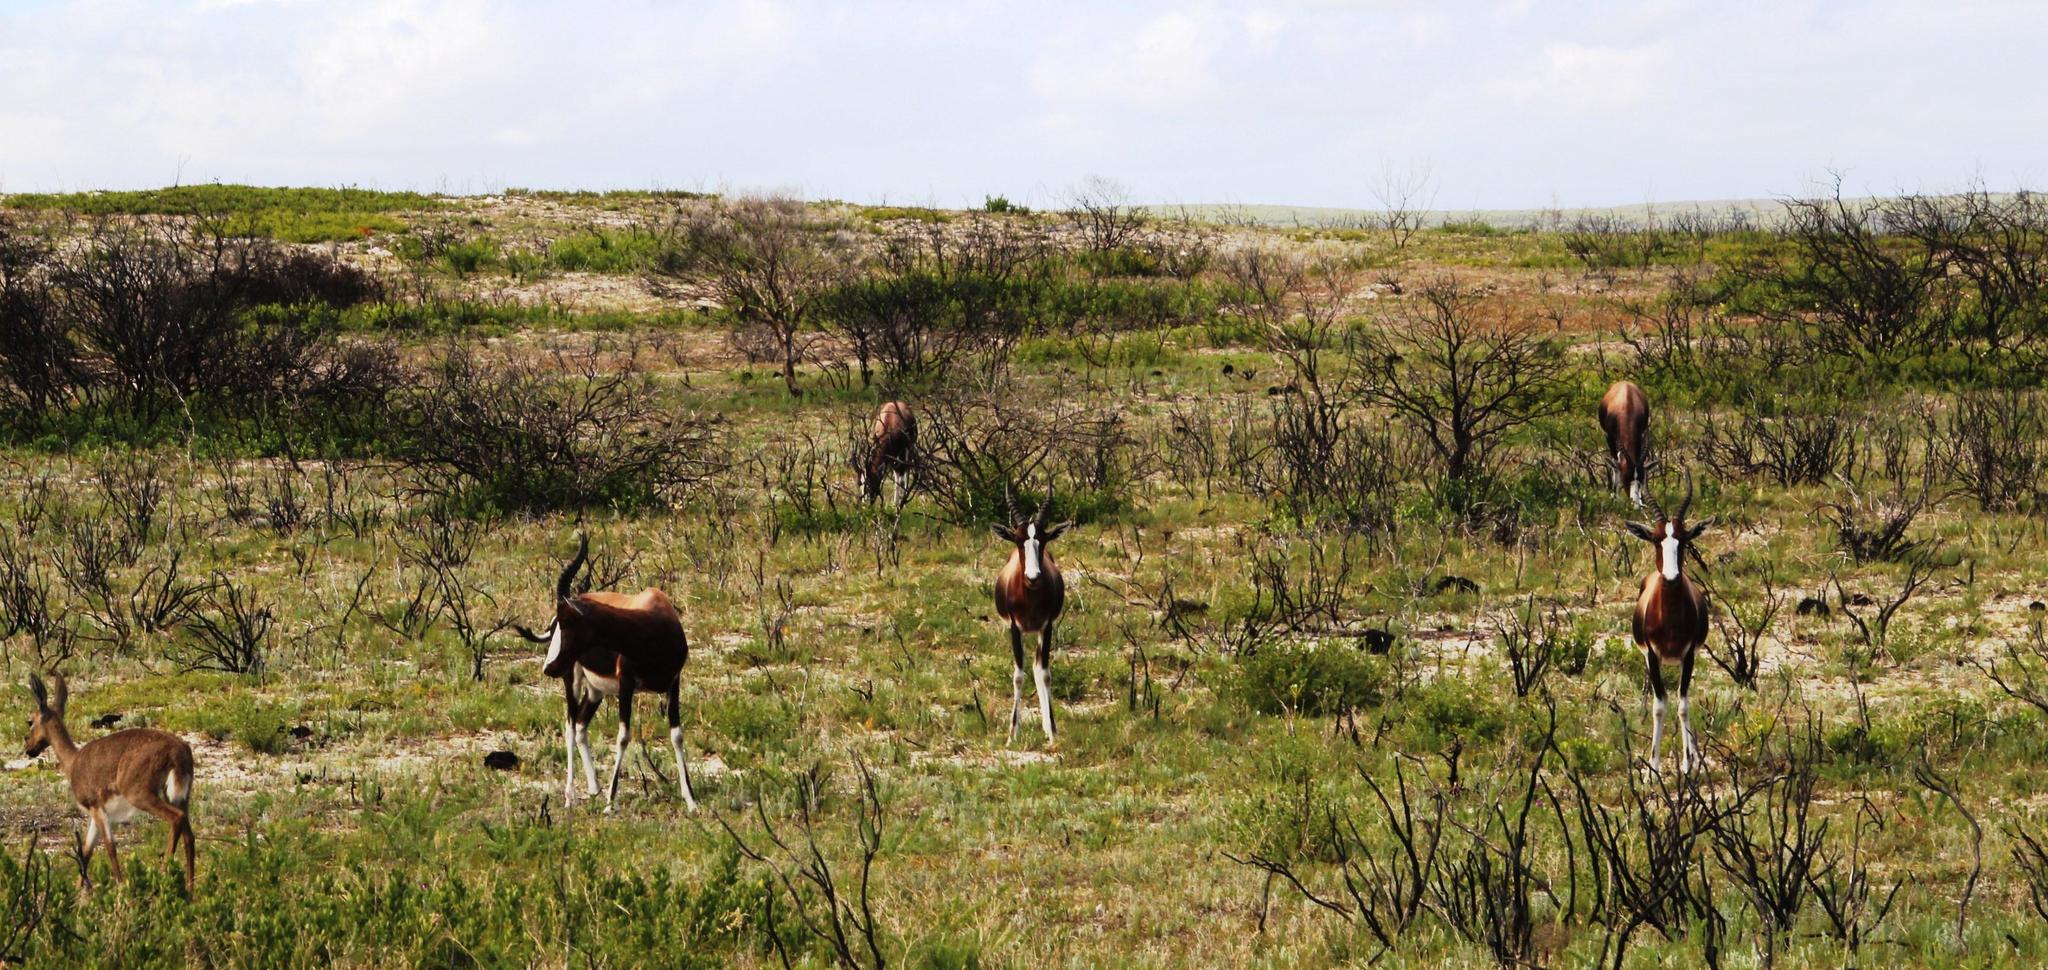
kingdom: Animalia
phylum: Chordata
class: Mammalia
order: Artiodactyla
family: Bovidae
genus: Damaliscus
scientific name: Damaliscus pygargus
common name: Bontebok
